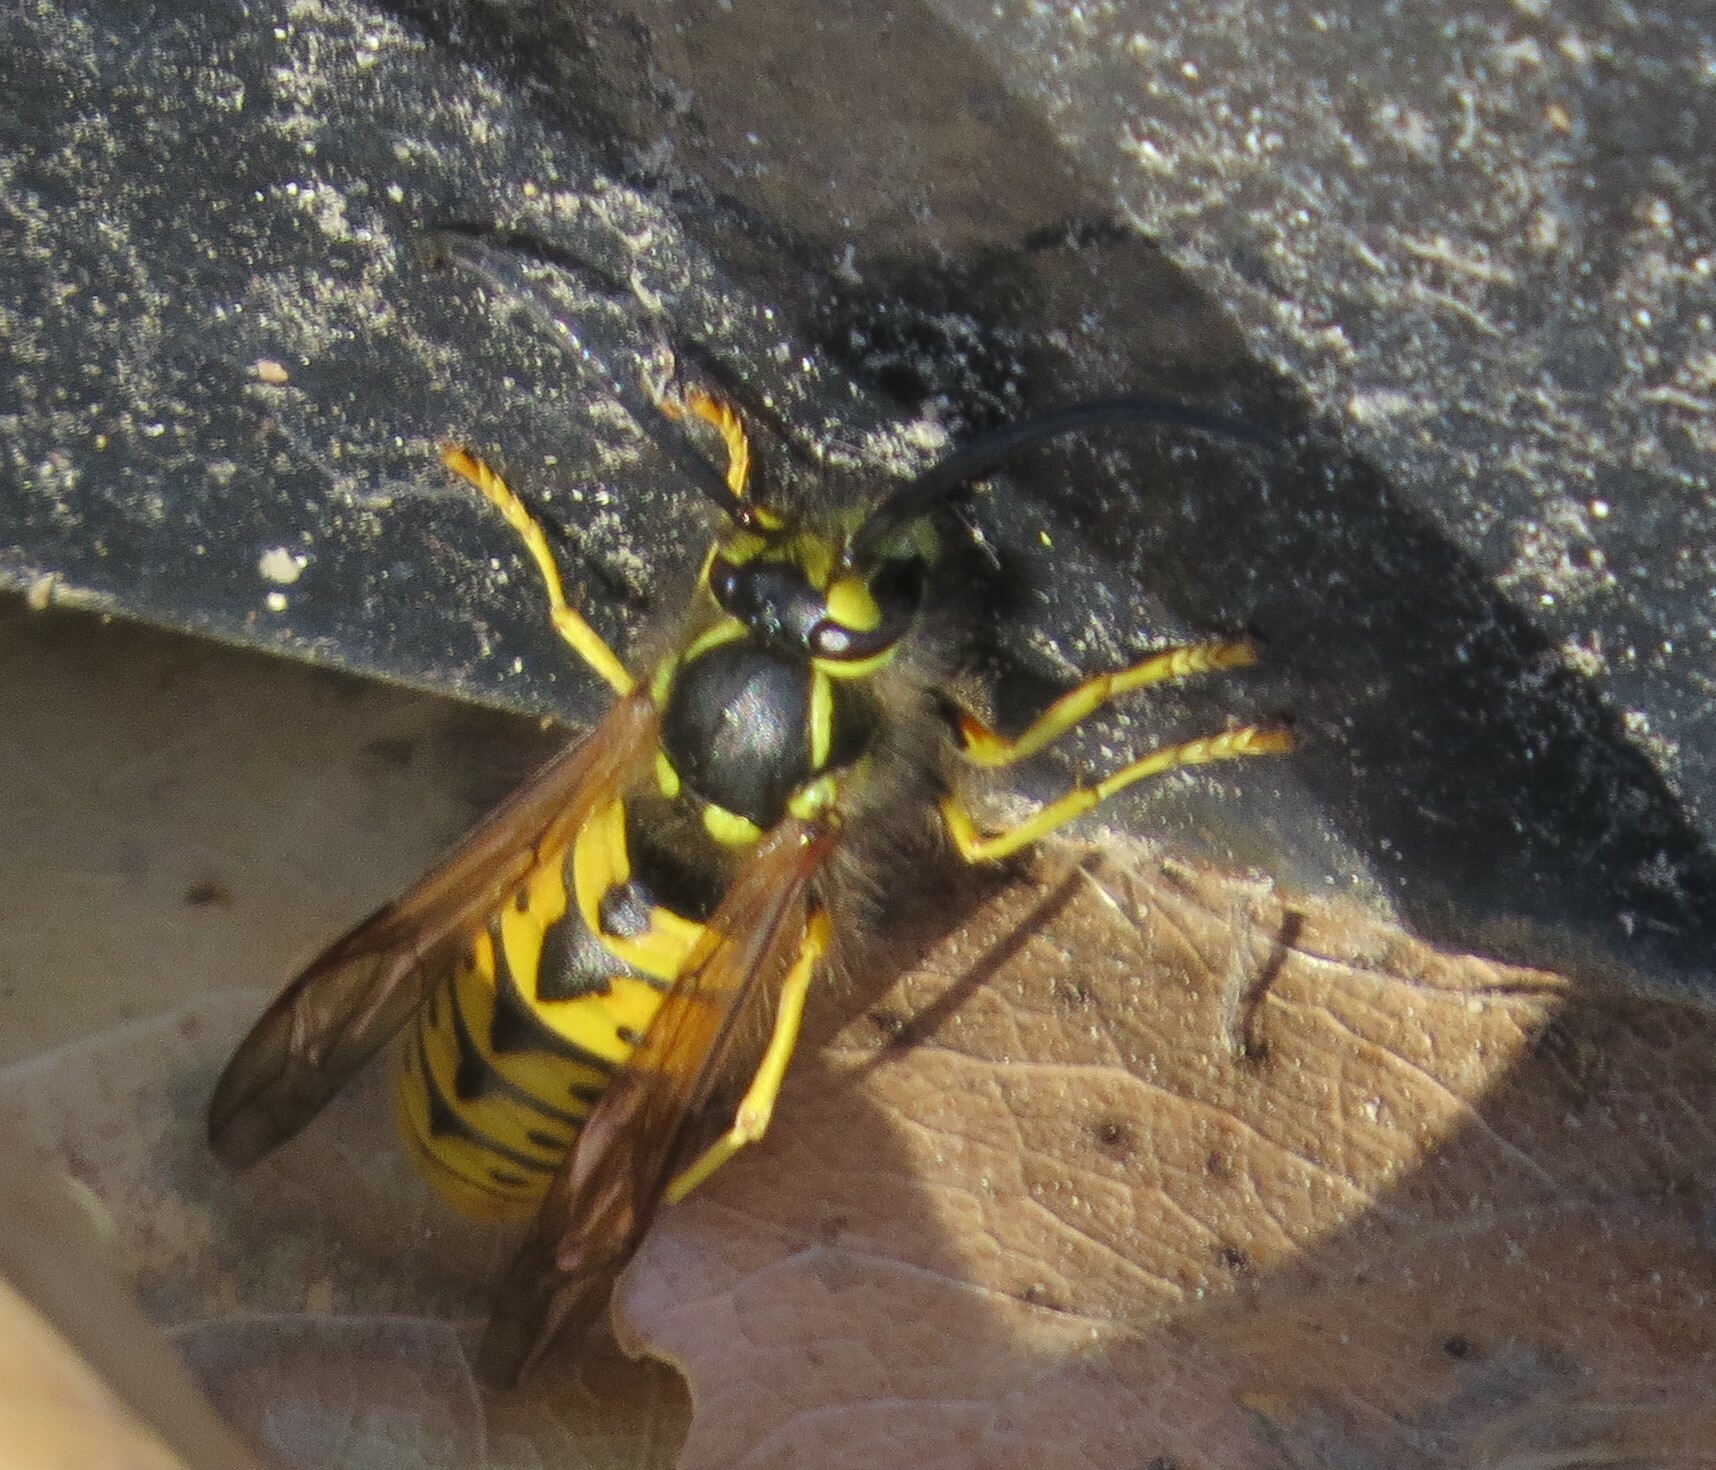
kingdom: Animalia
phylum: Arthropoda
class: Insecta
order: Hymenoptera
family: Vespidae
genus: Vespula
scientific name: Vespula germanica
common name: German wasp
